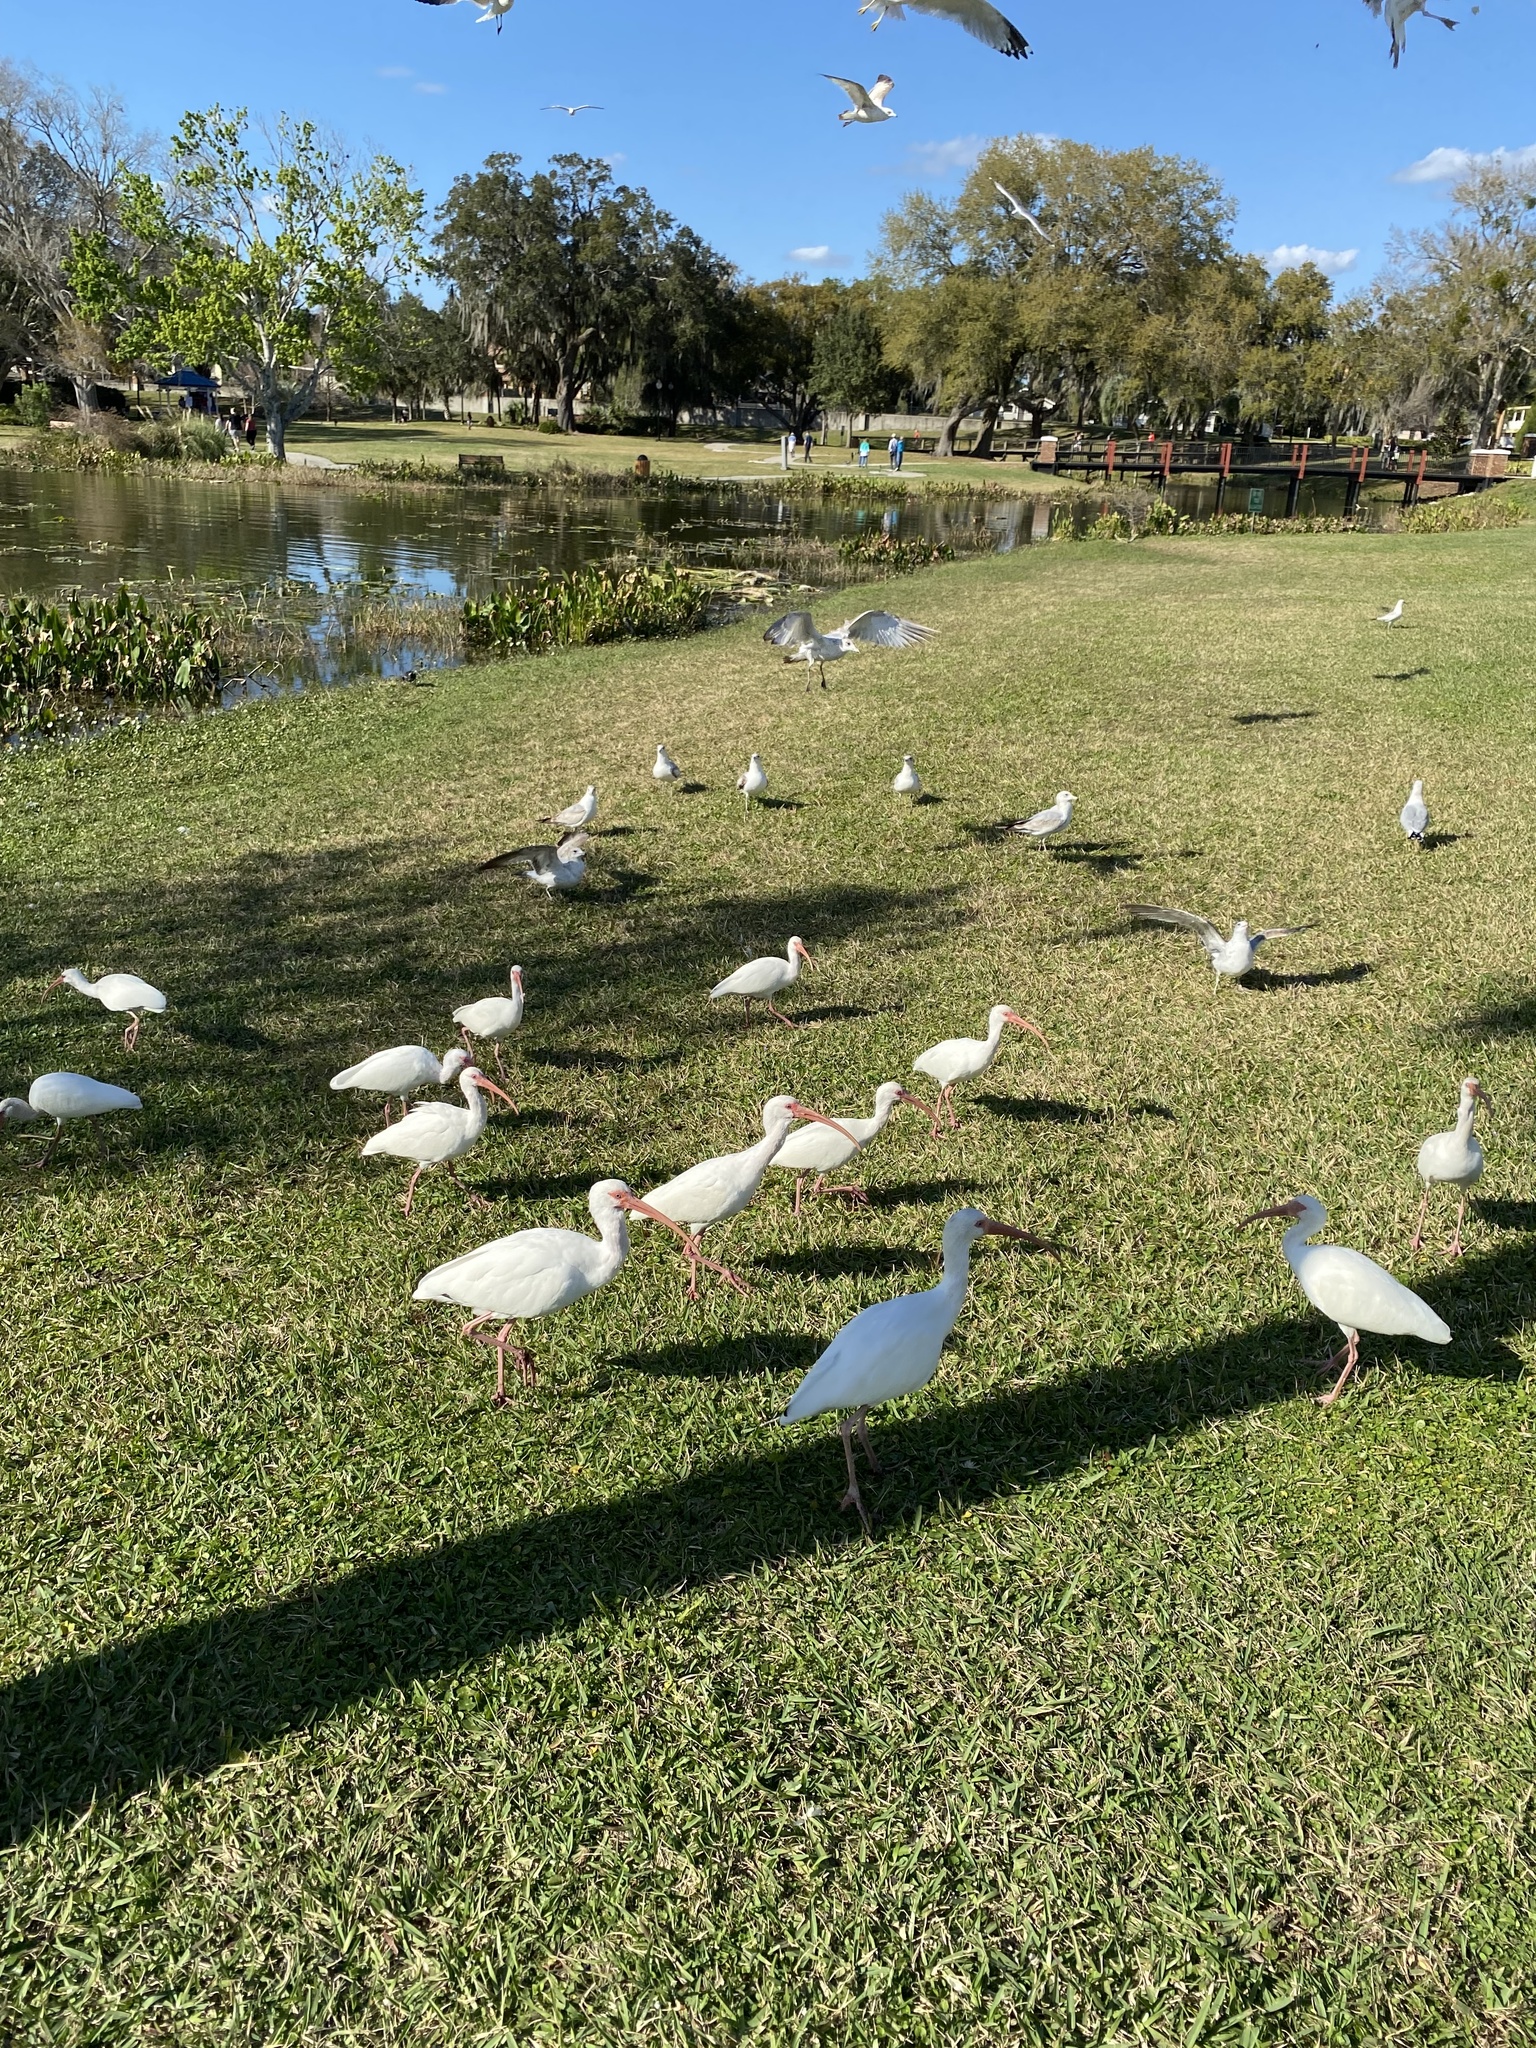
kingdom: Animalia
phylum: Chordata
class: Aves
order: Pelecaniformes
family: Threskiornithidae
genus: Eudocimus
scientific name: Eudocimus albus
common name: White ibis
